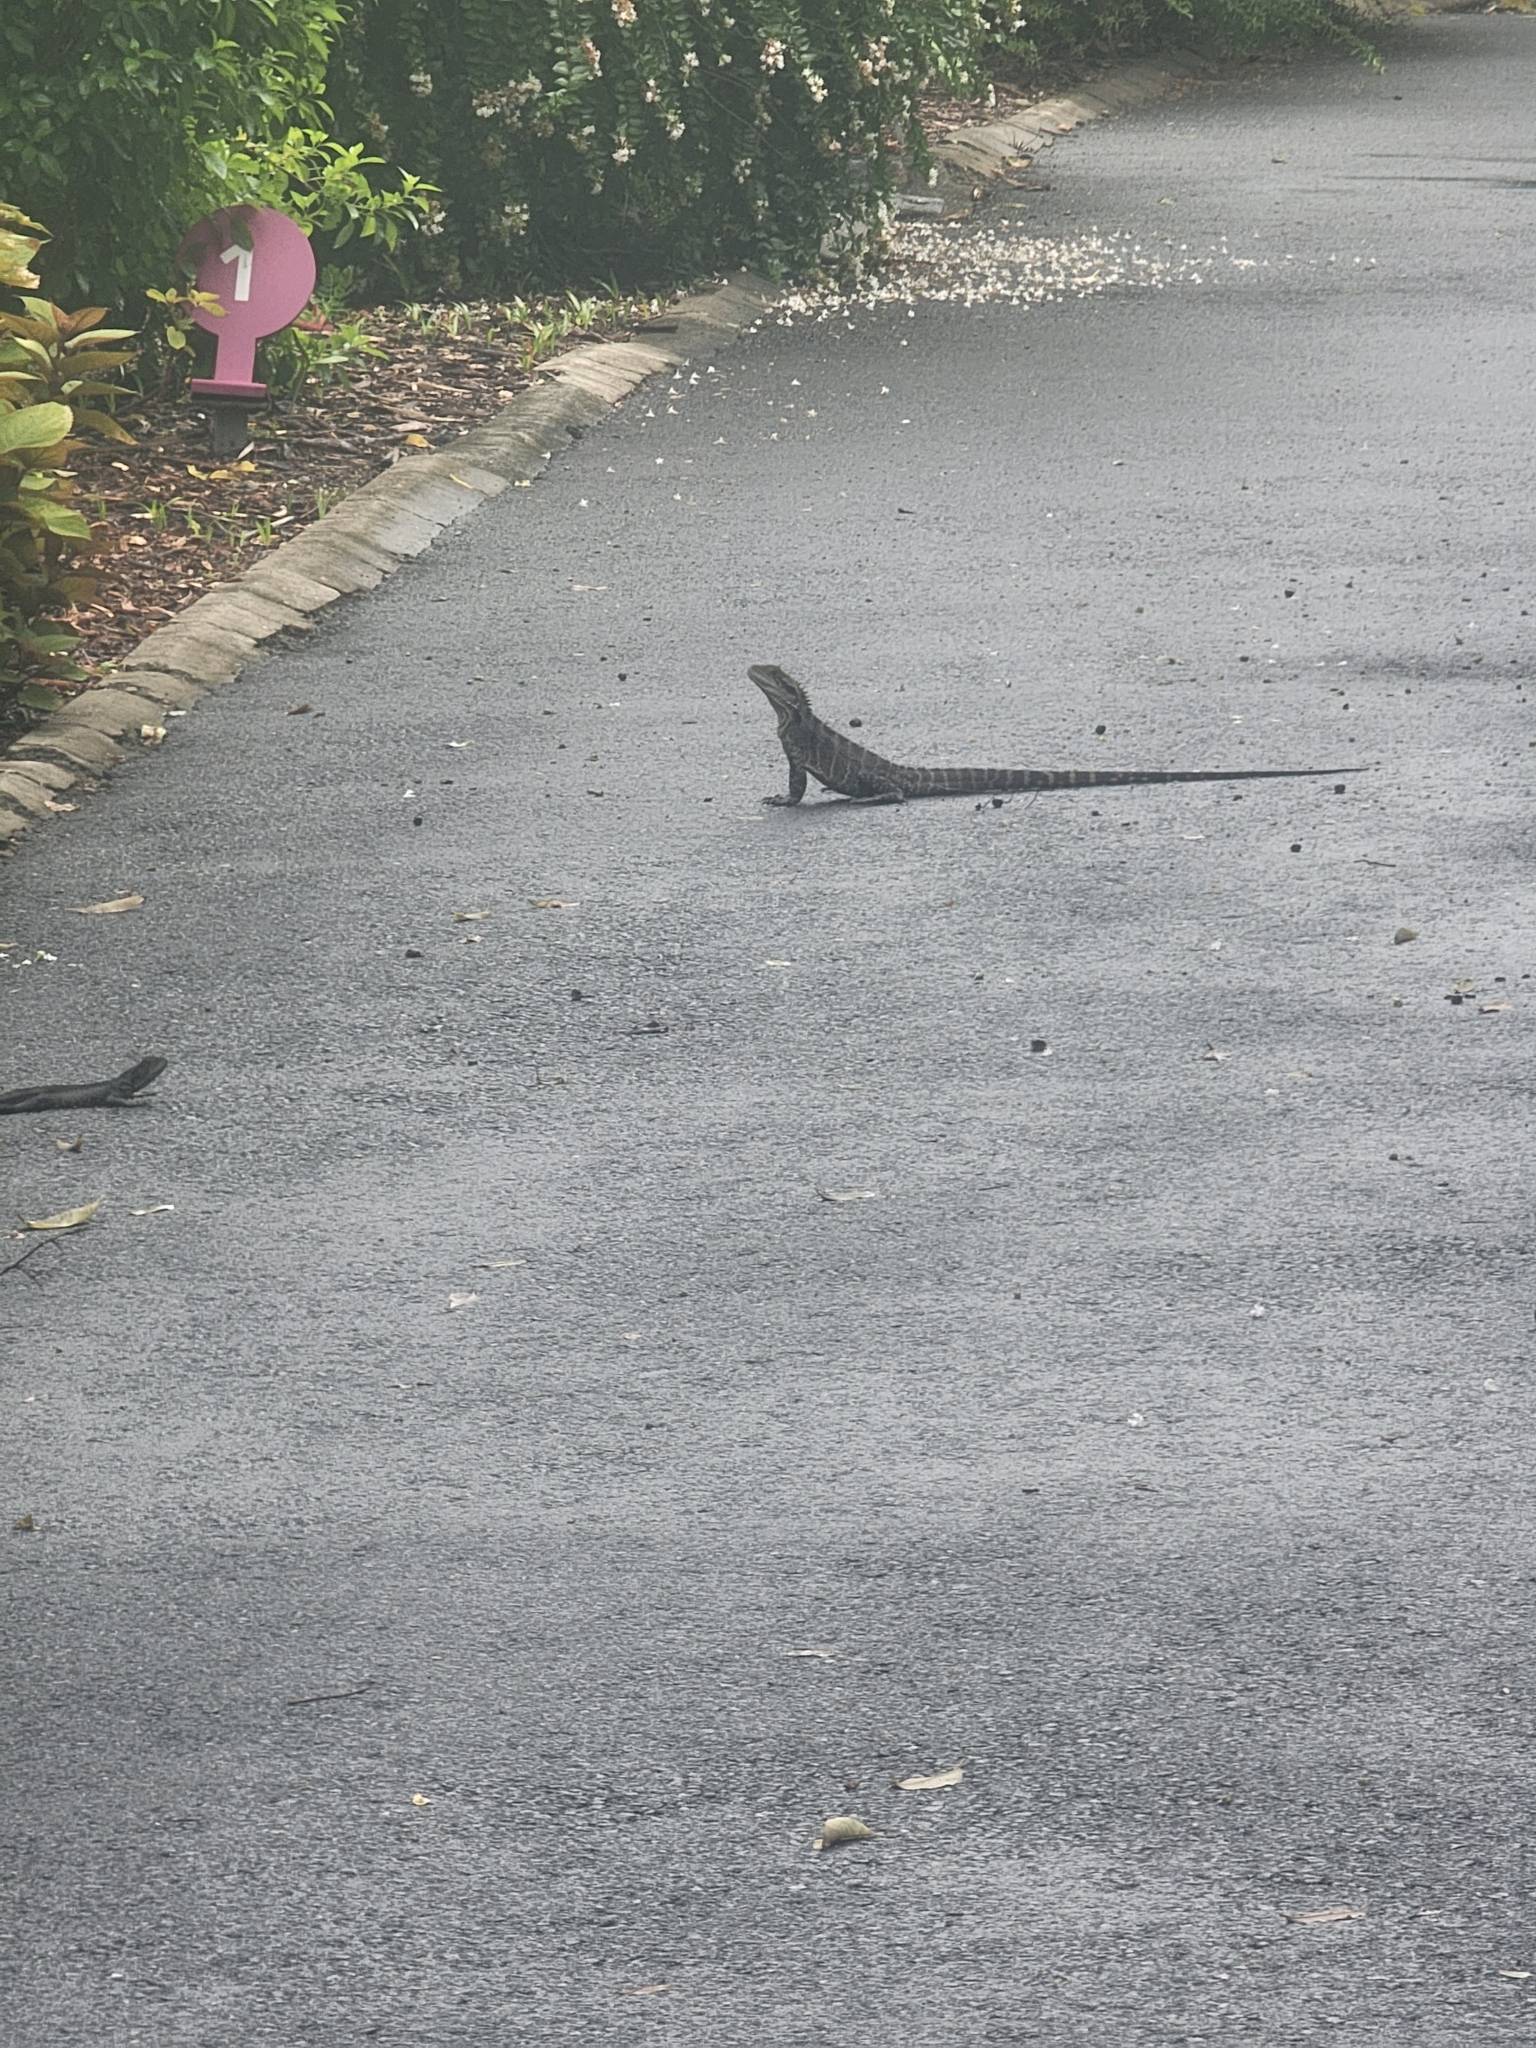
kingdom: Animalia
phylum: Chordata
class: Squamata
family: Agamidae
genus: Intellagama
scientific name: Intellagama lesueurii
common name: Eastern water dragon
